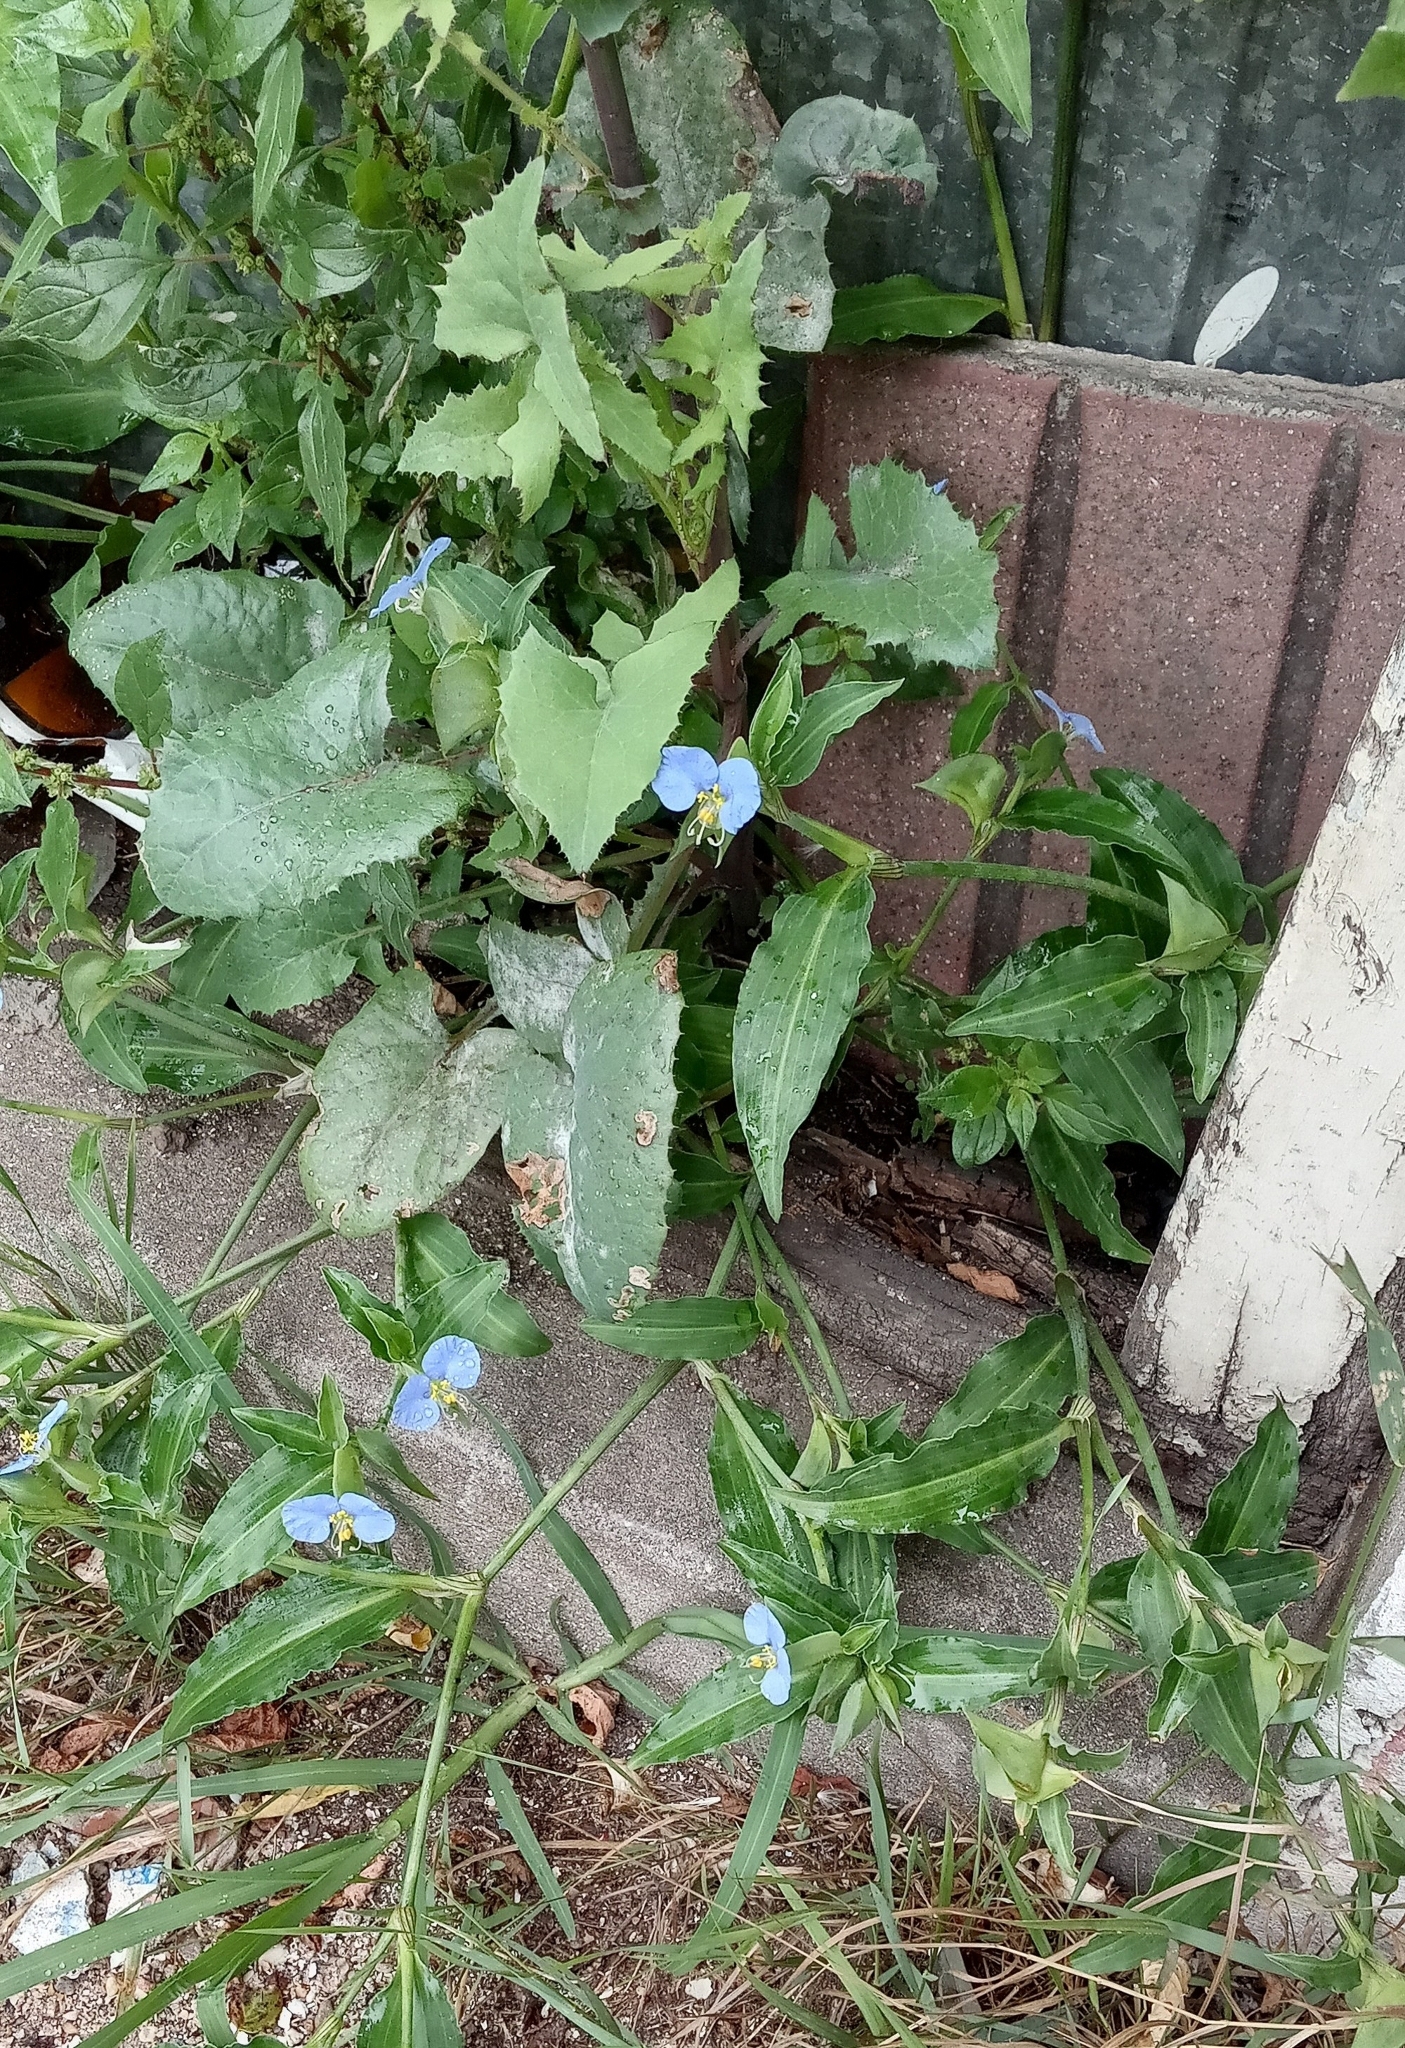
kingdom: Plantae
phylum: Tracheophyta
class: Liliopsida
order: Commelinales
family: Commelinaceae
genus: Commelina
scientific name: Commelina erecta
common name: Blousel blommetjie
